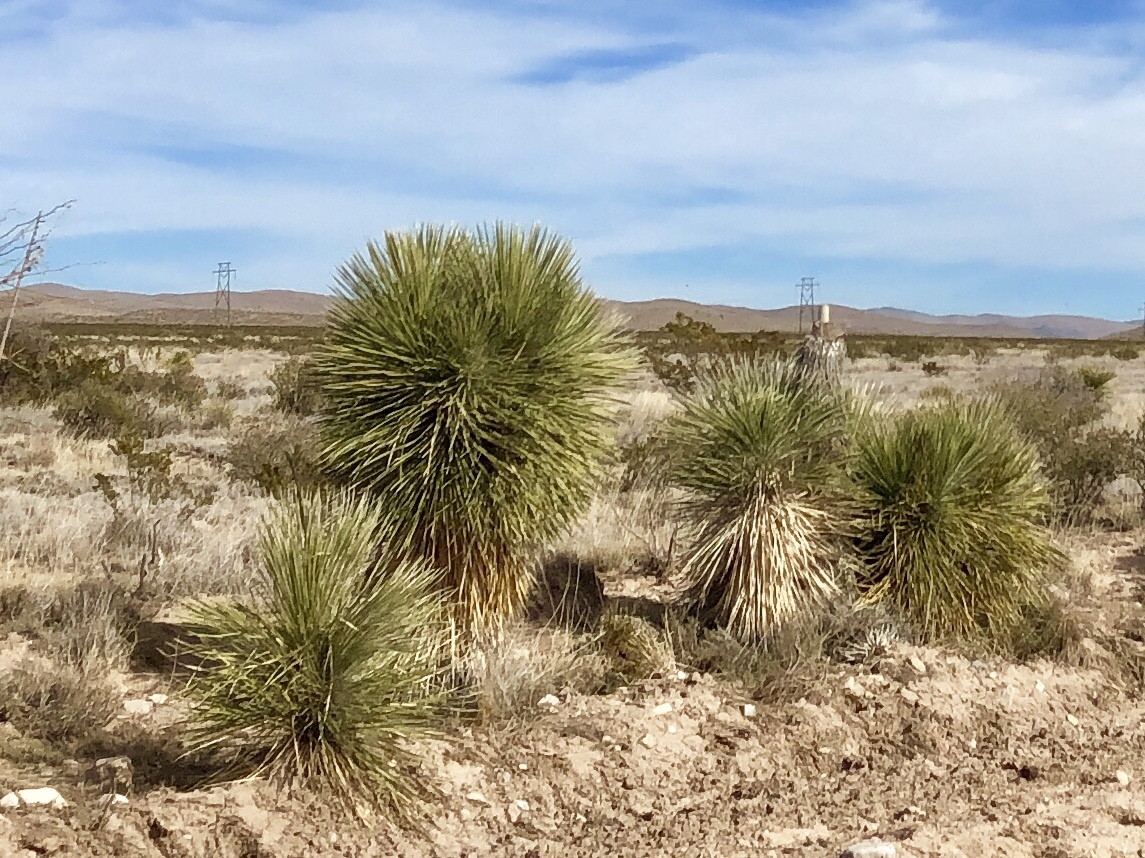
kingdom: Plantae
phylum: Tracheophyta
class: Liliopsida
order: Asparagales
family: Asparagaceae
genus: Yucca
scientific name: Yucca elata
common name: Palmella
